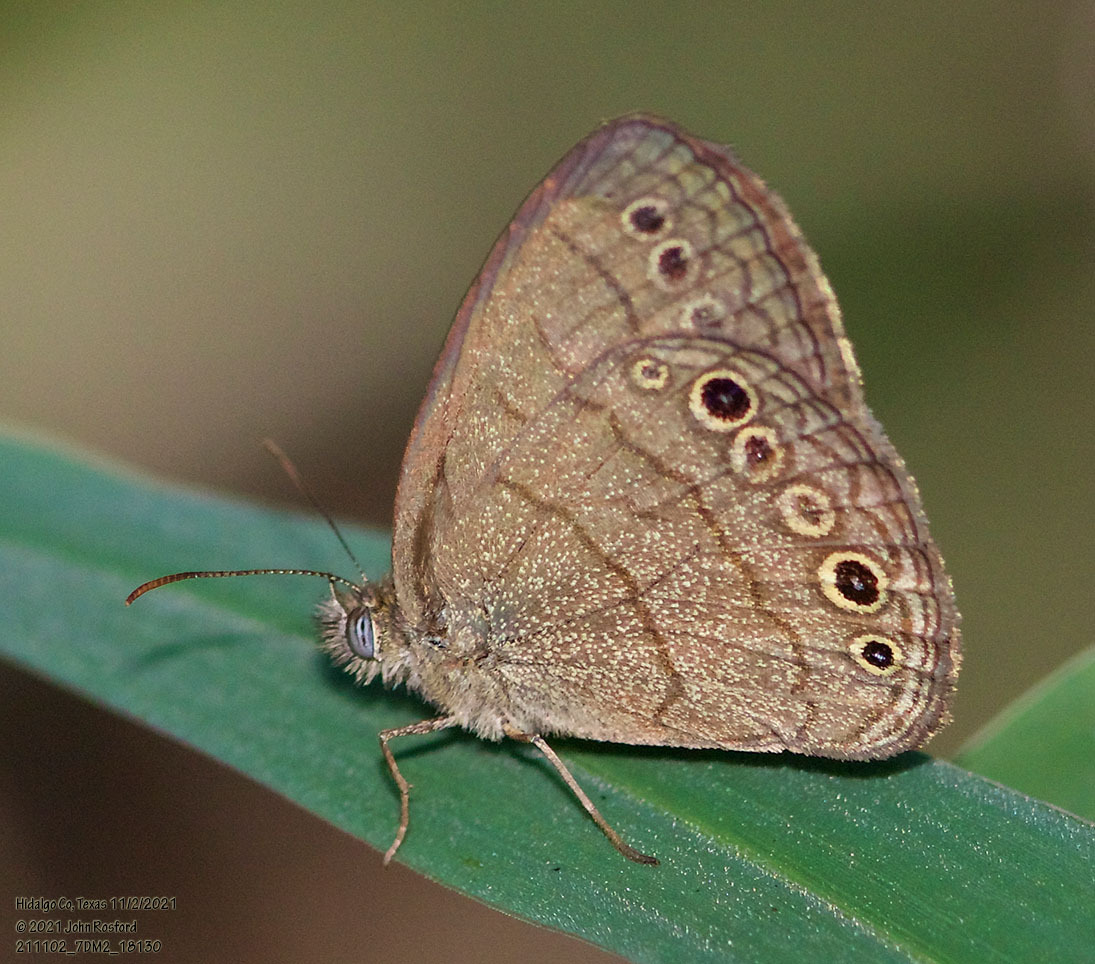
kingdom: Animalia
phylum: Arthropoda
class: Insecta
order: Lepidoptera
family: Nymphalidae
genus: Hermeuptychia
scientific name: Hermeuptychia hermybius
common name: South texas satyr
